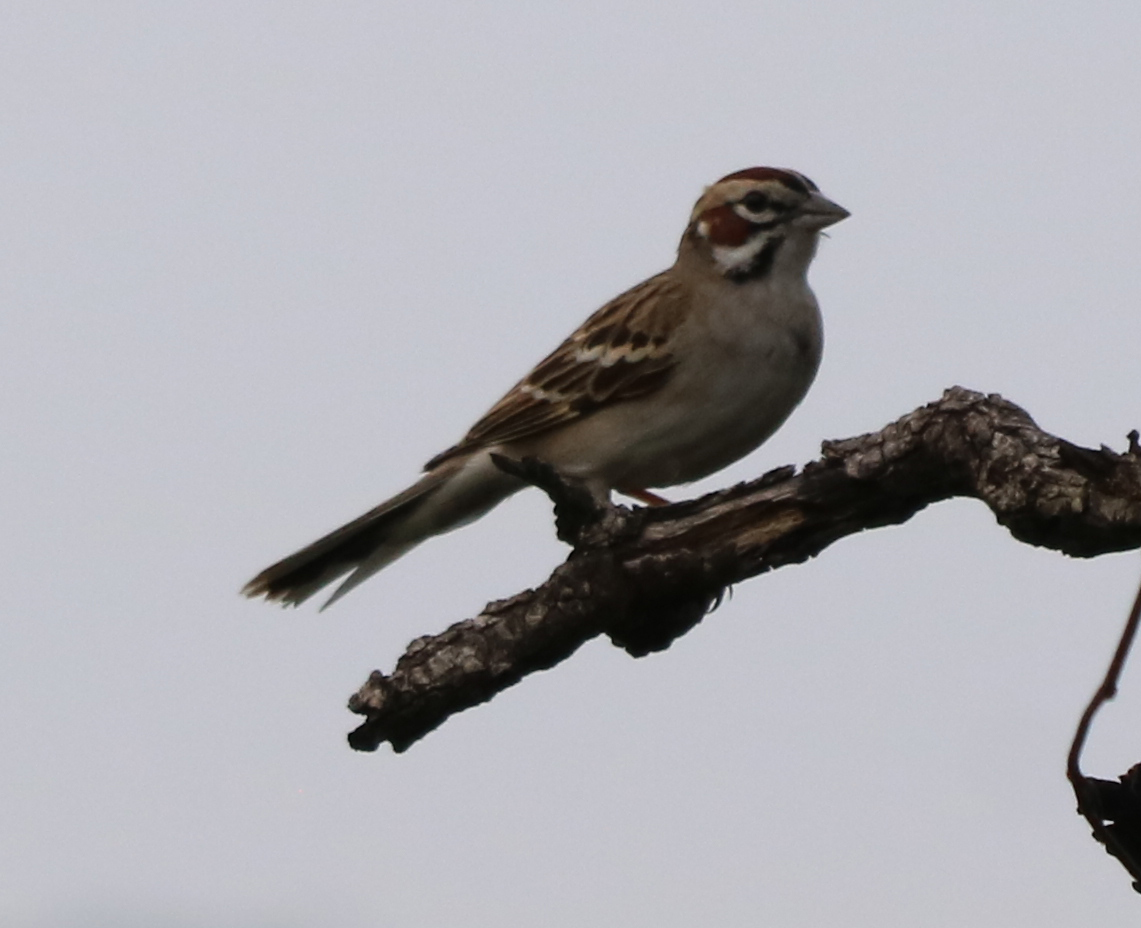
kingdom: Animalia
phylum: Chordata
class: Aves
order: Passeriformes
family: Passerellidae
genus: Chondestes
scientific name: Chondestes grammacus
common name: Lark sparrow
